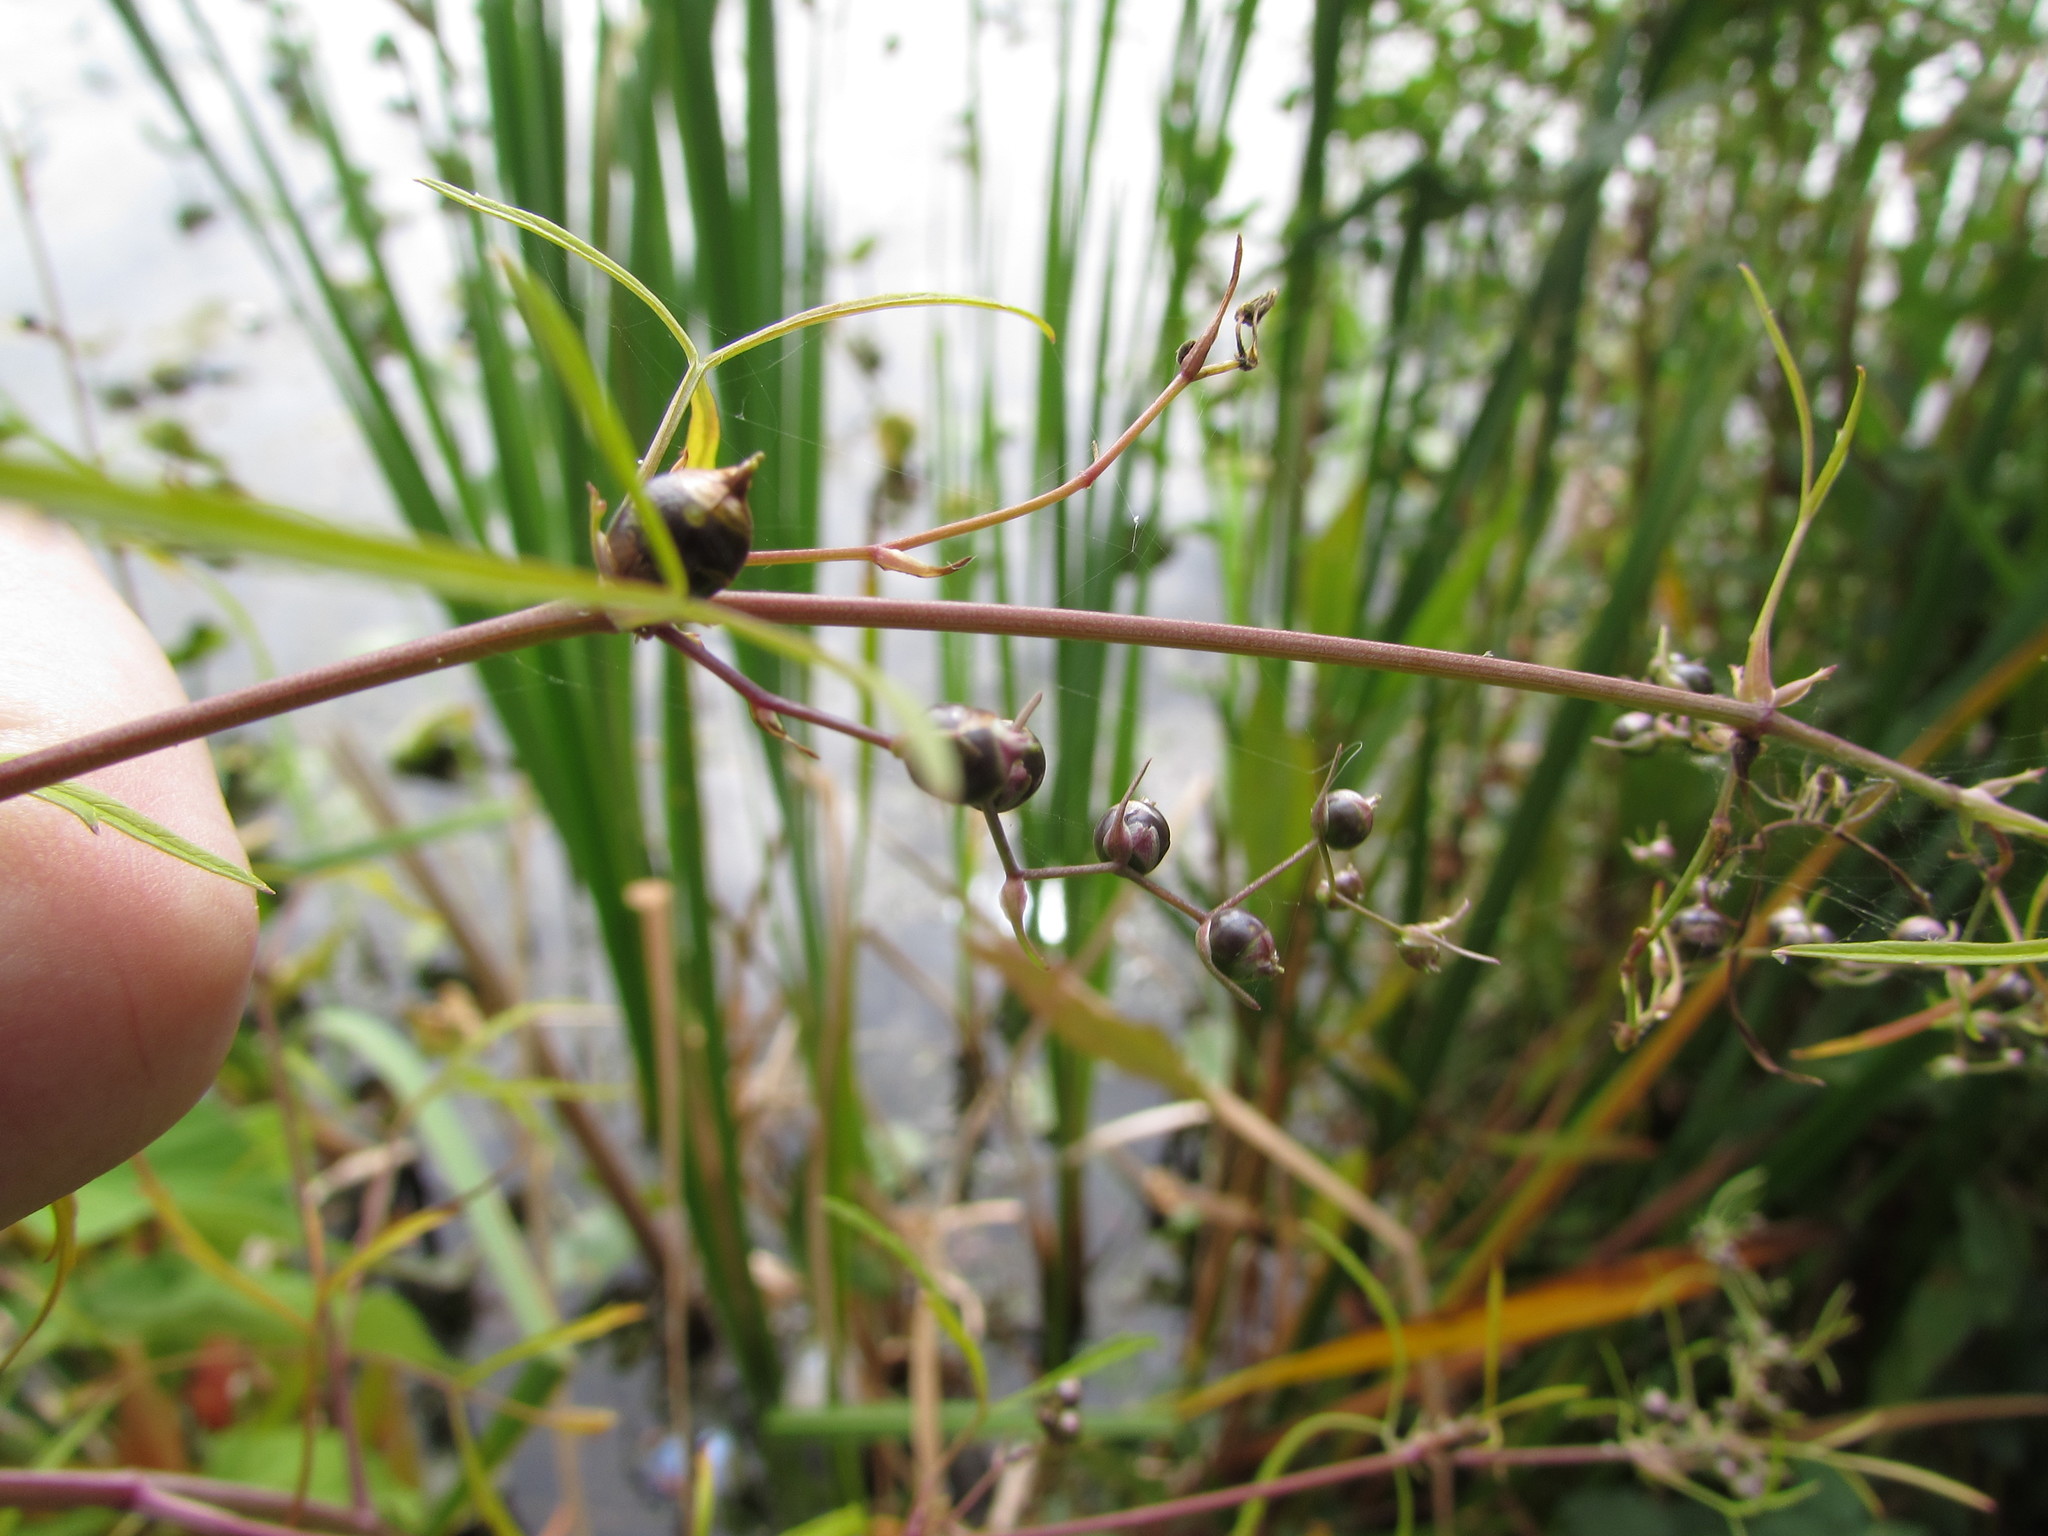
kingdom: Plantae
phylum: Tracheophyta
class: Magnoliopsida
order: Apiales
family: Apiaceae
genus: Cicuta
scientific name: Cicuta bulbifera
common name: Bulb-bearing water-hemlock
